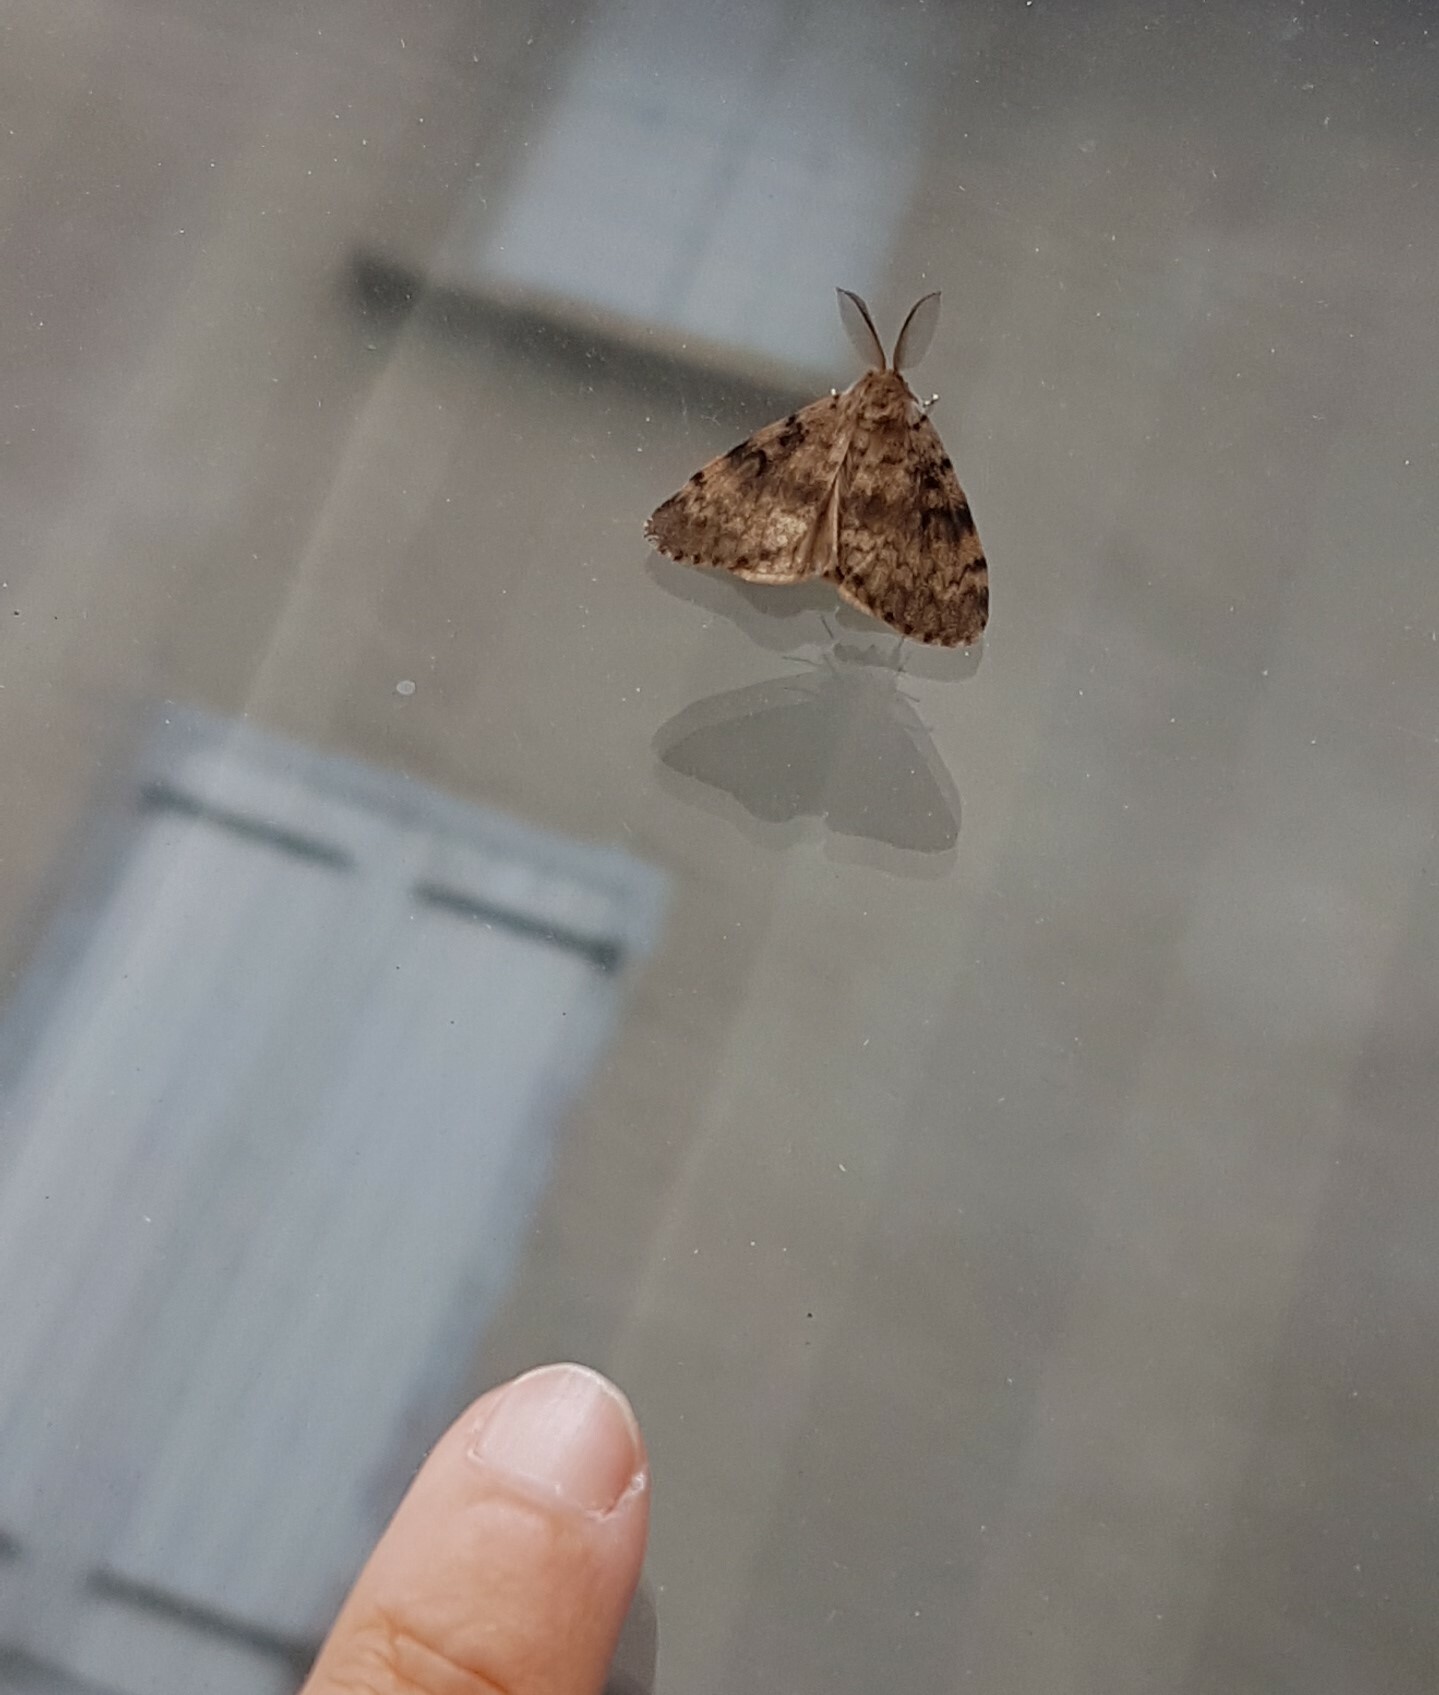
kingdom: Animalia
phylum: Arthropoda
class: Insecta
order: Lepidoptera
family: Erebidae
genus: Lymantria
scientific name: Lymantria dispar
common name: Gypsy moth
